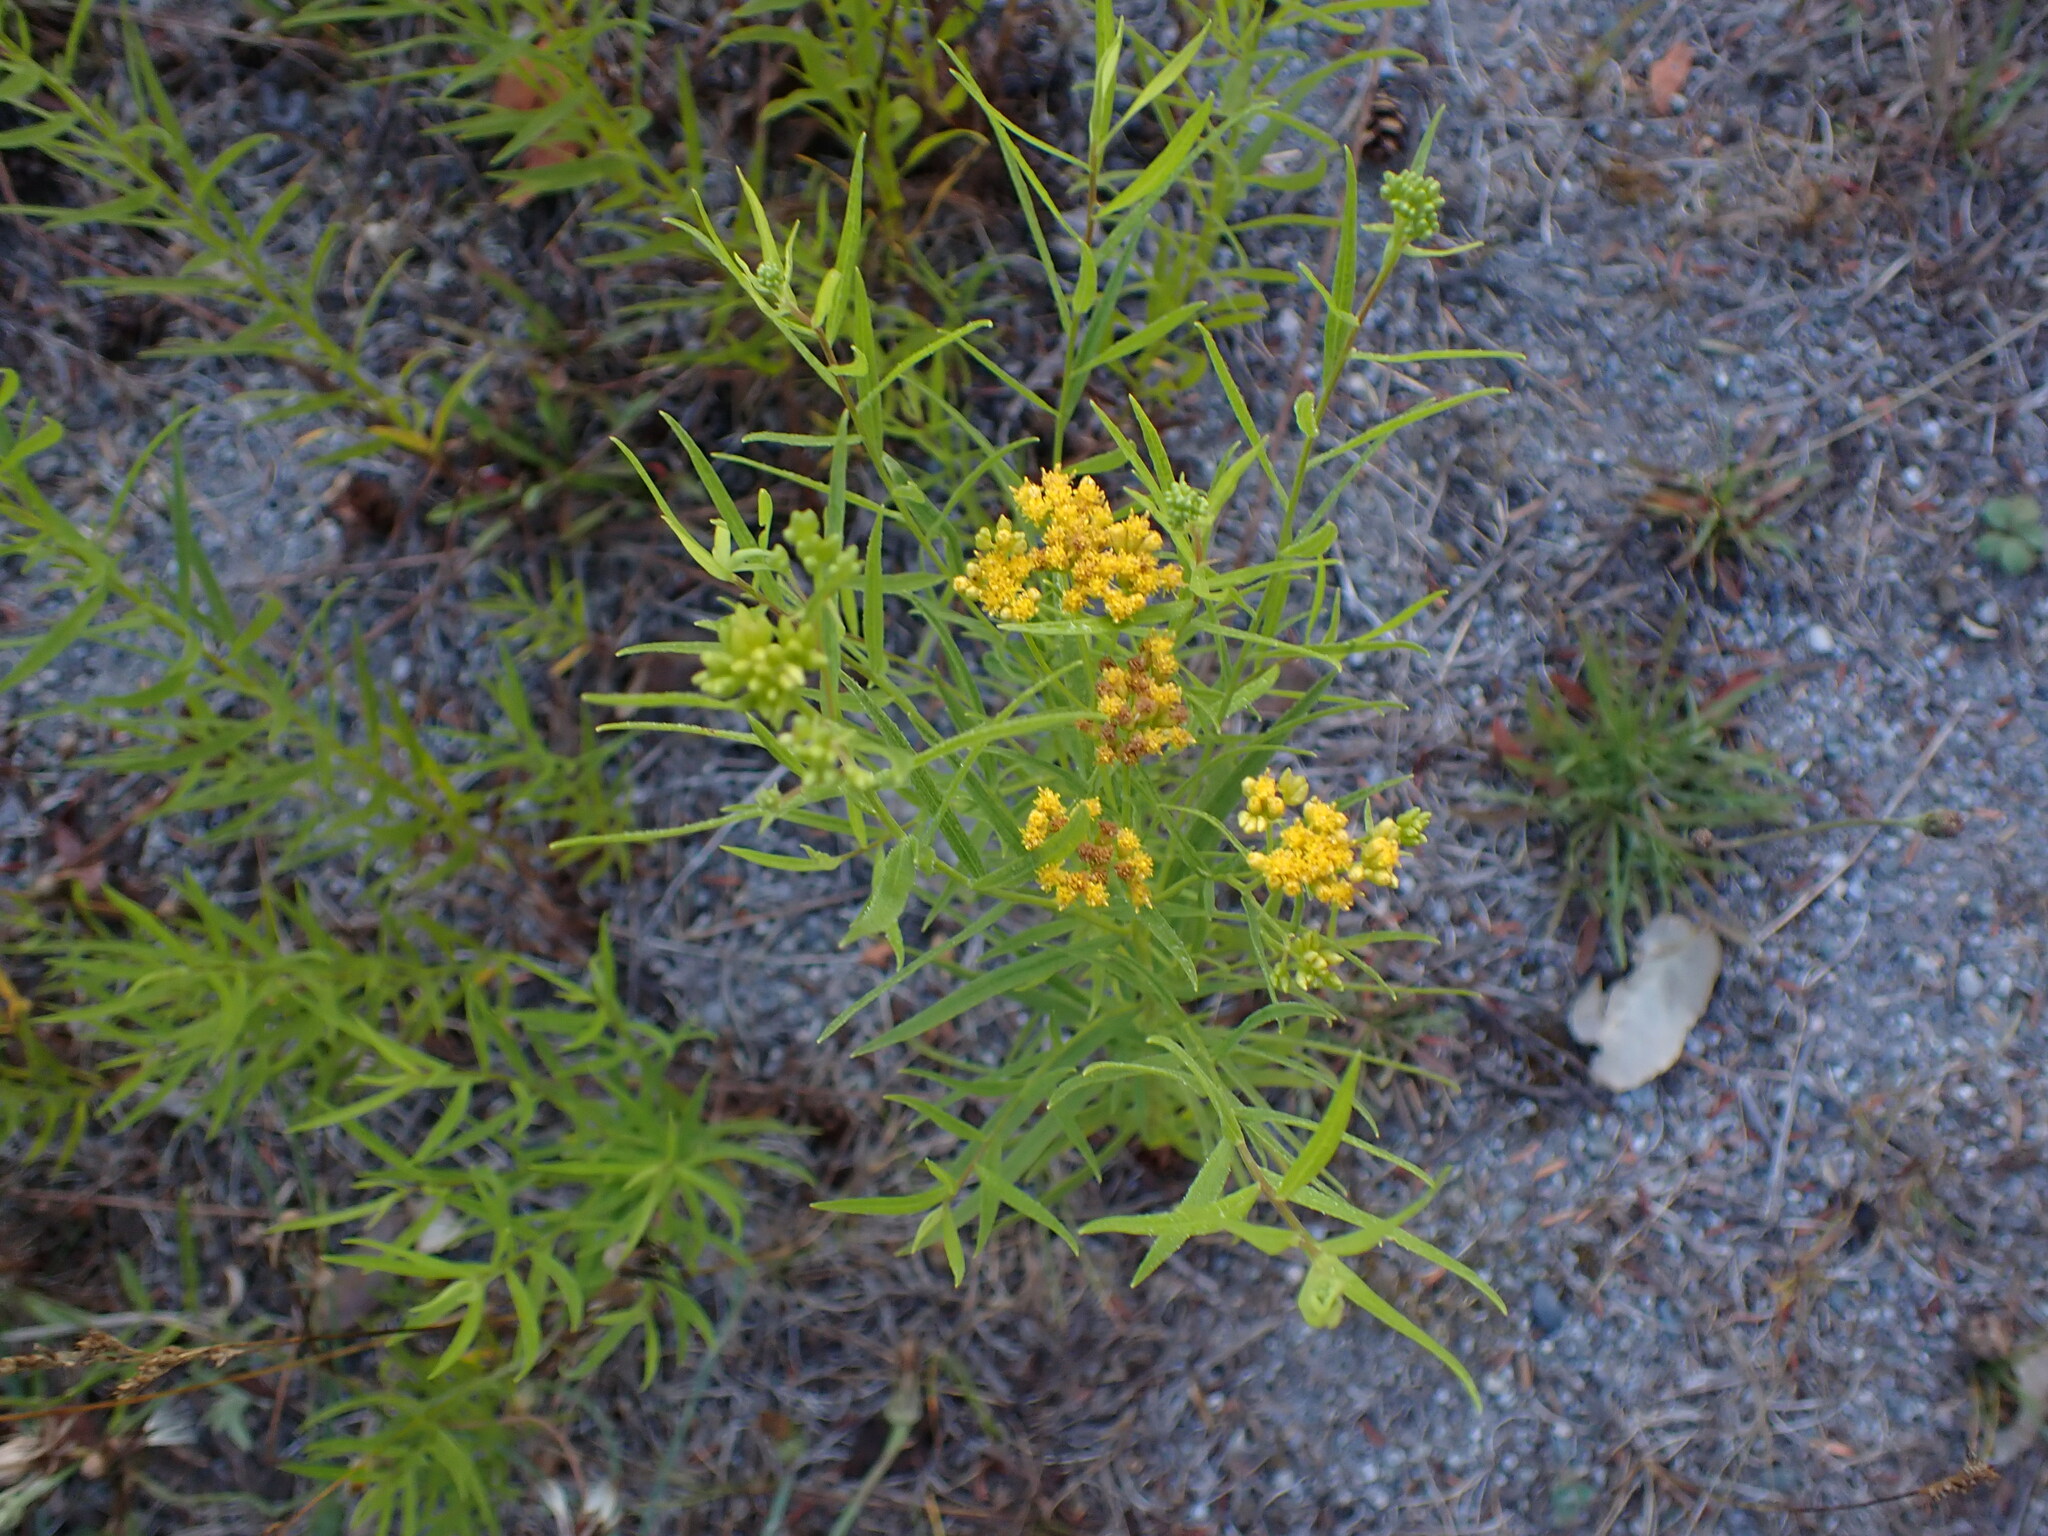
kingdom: Plantae
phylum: Tracheophyta
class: Magnoliopsida
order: Asterales
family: Asteraceae
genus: Euthamia
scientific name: Euthamia graminifolia
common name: Common goldentop
